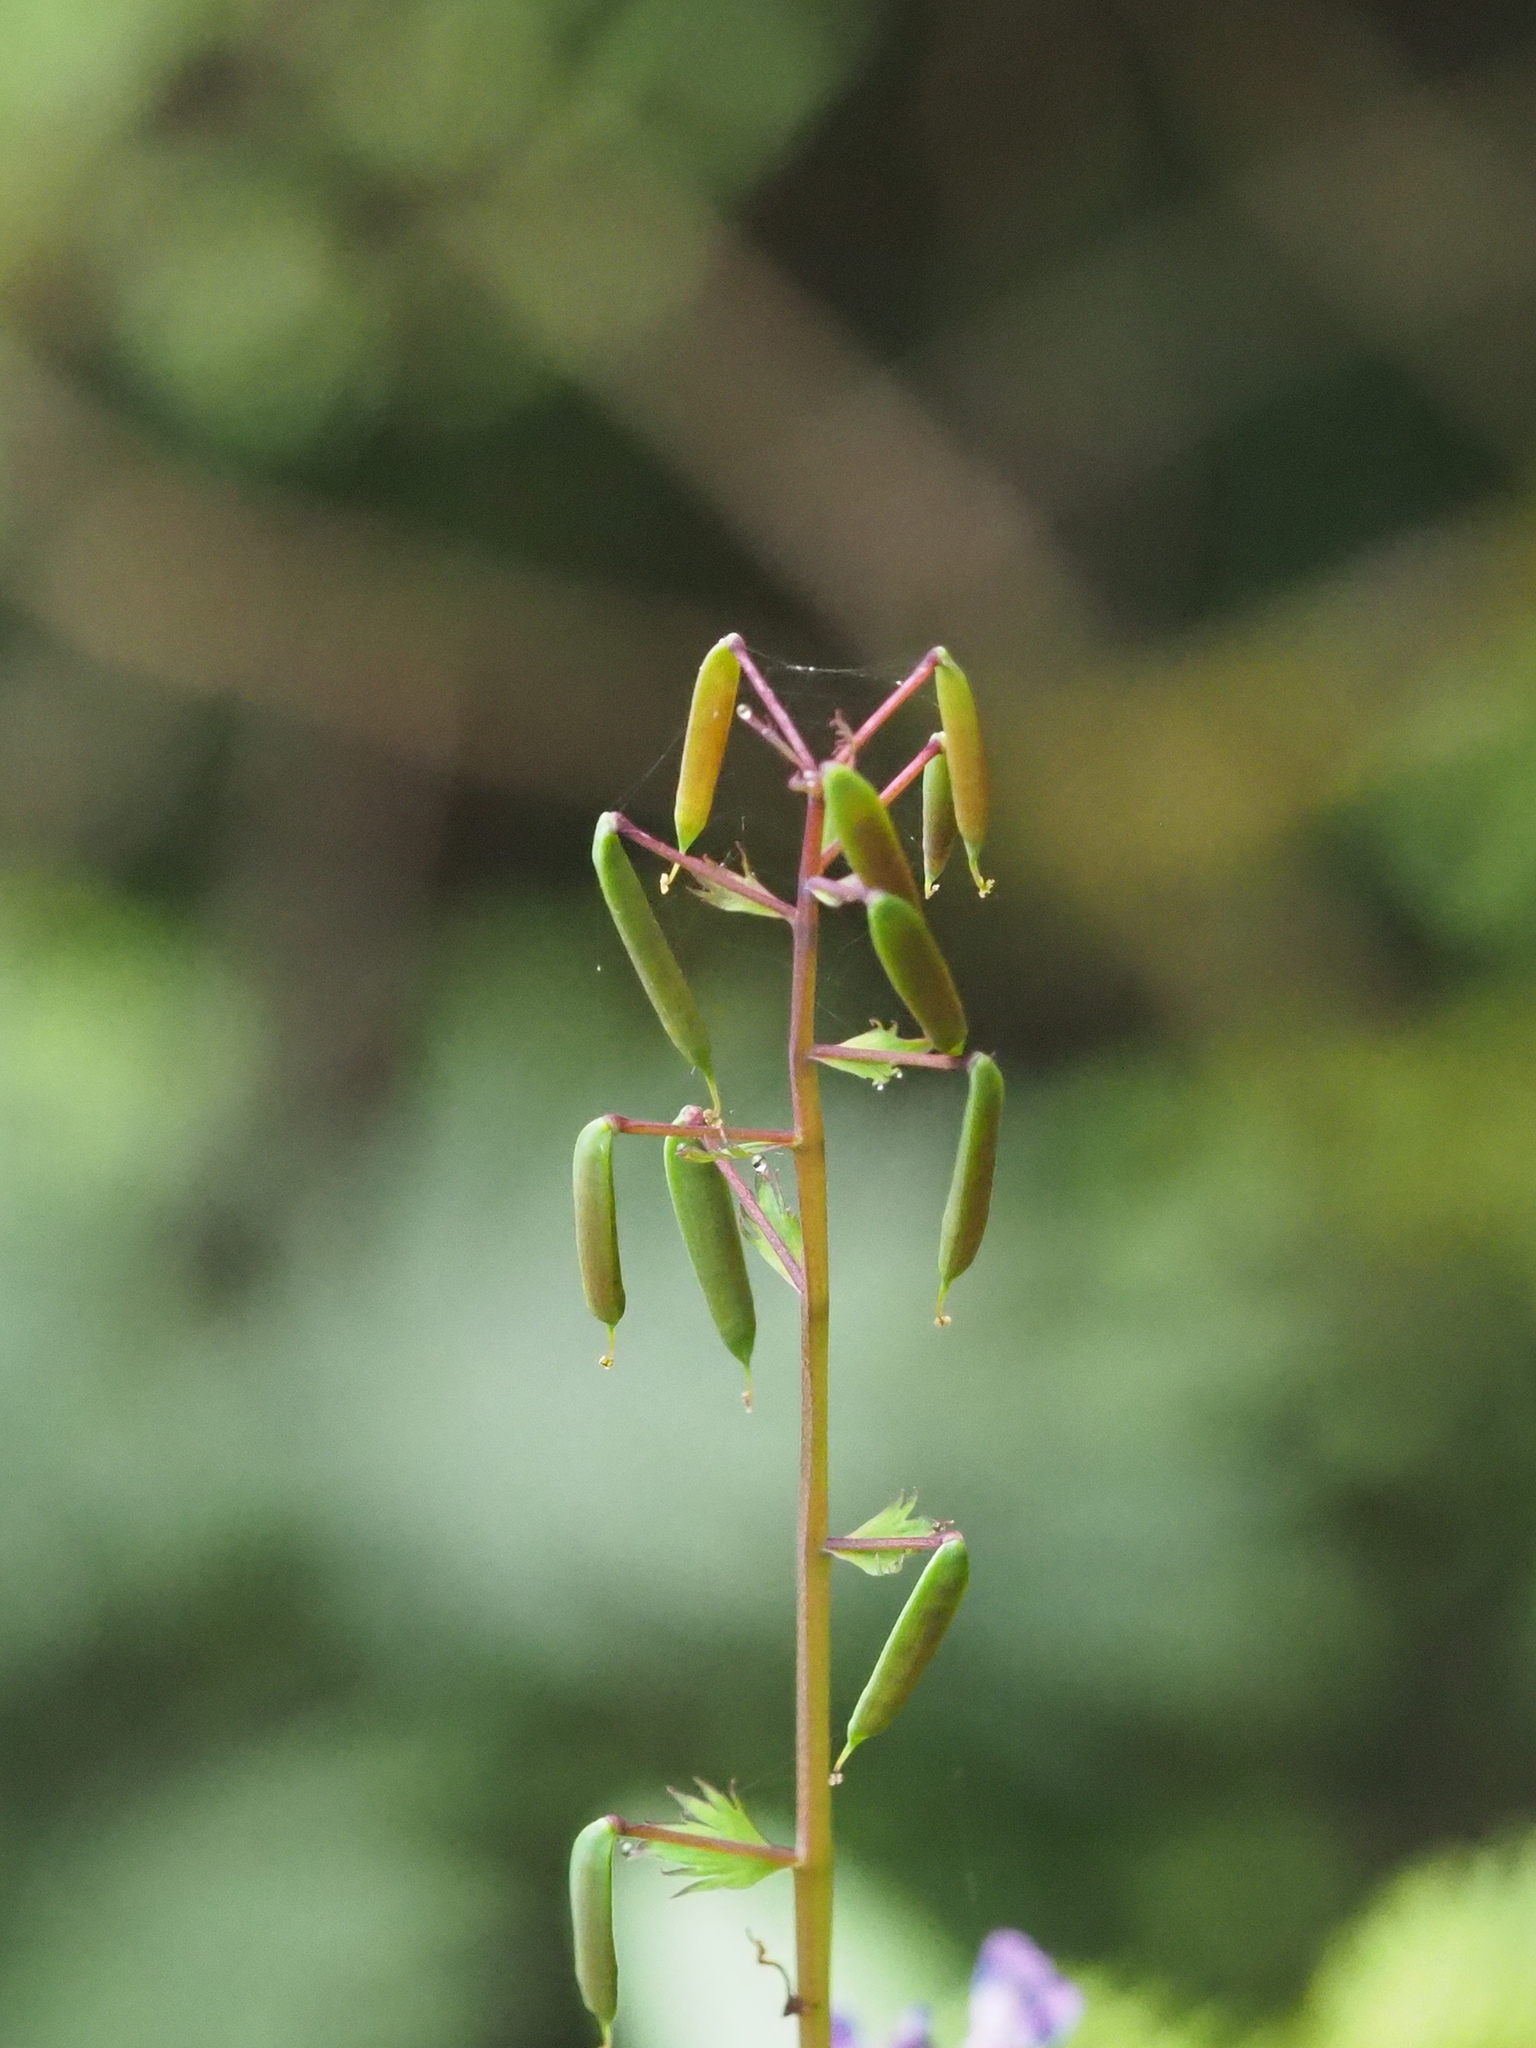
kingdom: Plantae
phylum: Tracheophyta
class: Magnoliopsida
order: Ranunculales
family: Papaveraceae
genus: Corydalis
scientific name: Corydalis incisa
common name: Incised fumewort
